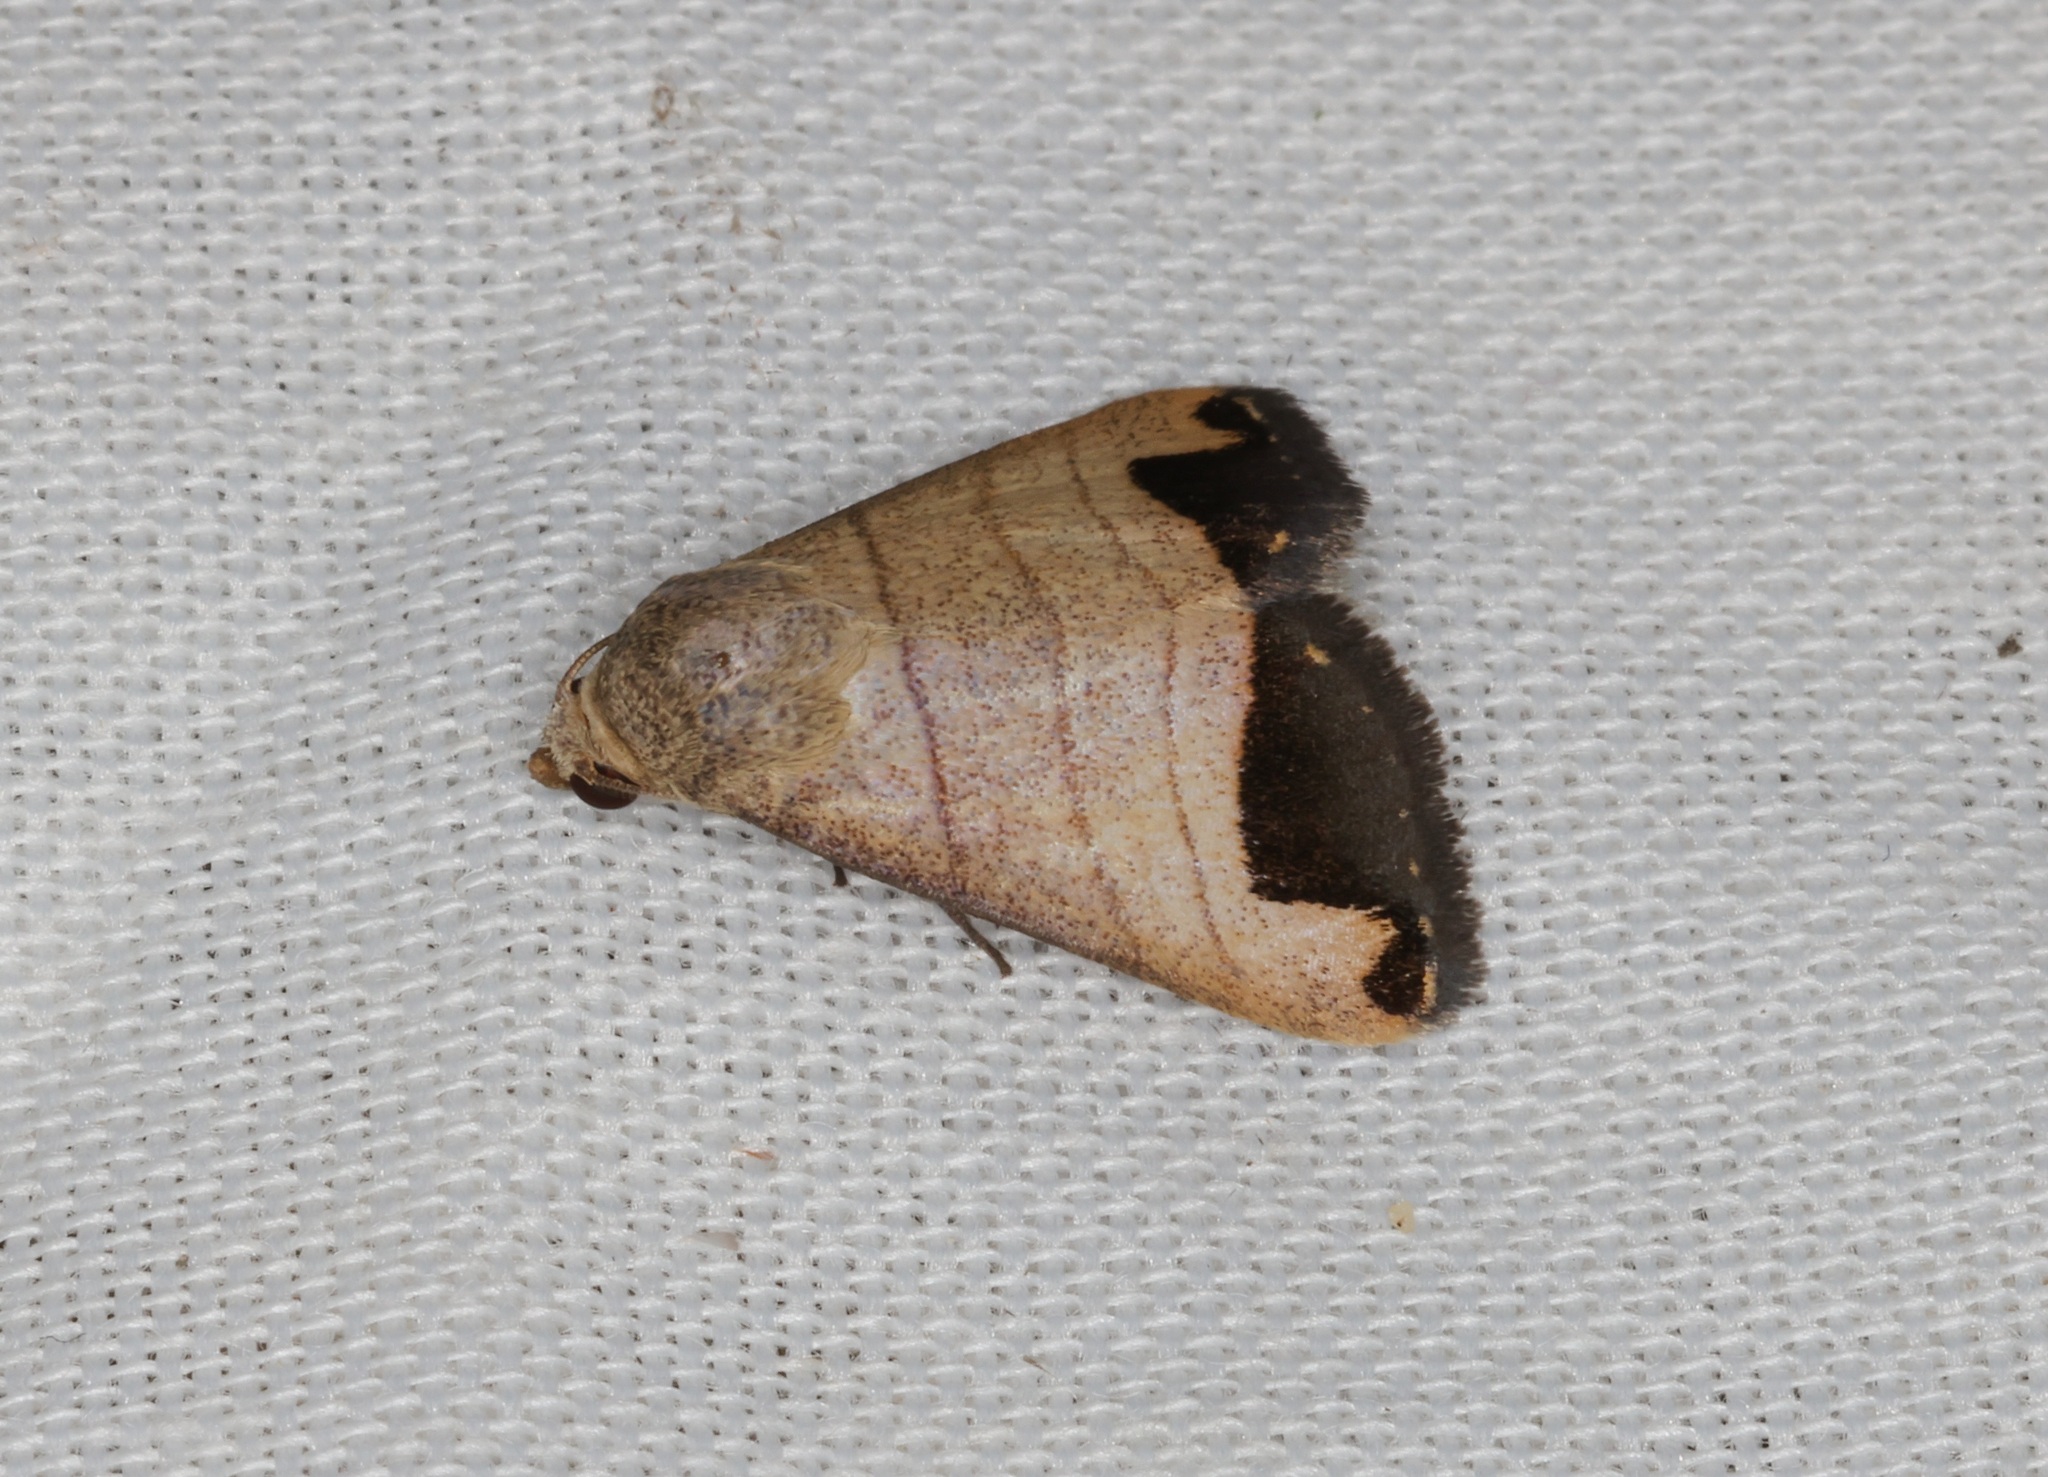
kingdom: Animalia
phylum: Arthropoda
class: Insecta
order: Lepidoptera
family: Erebidae
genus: Bocula
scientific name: Bocula marginata
